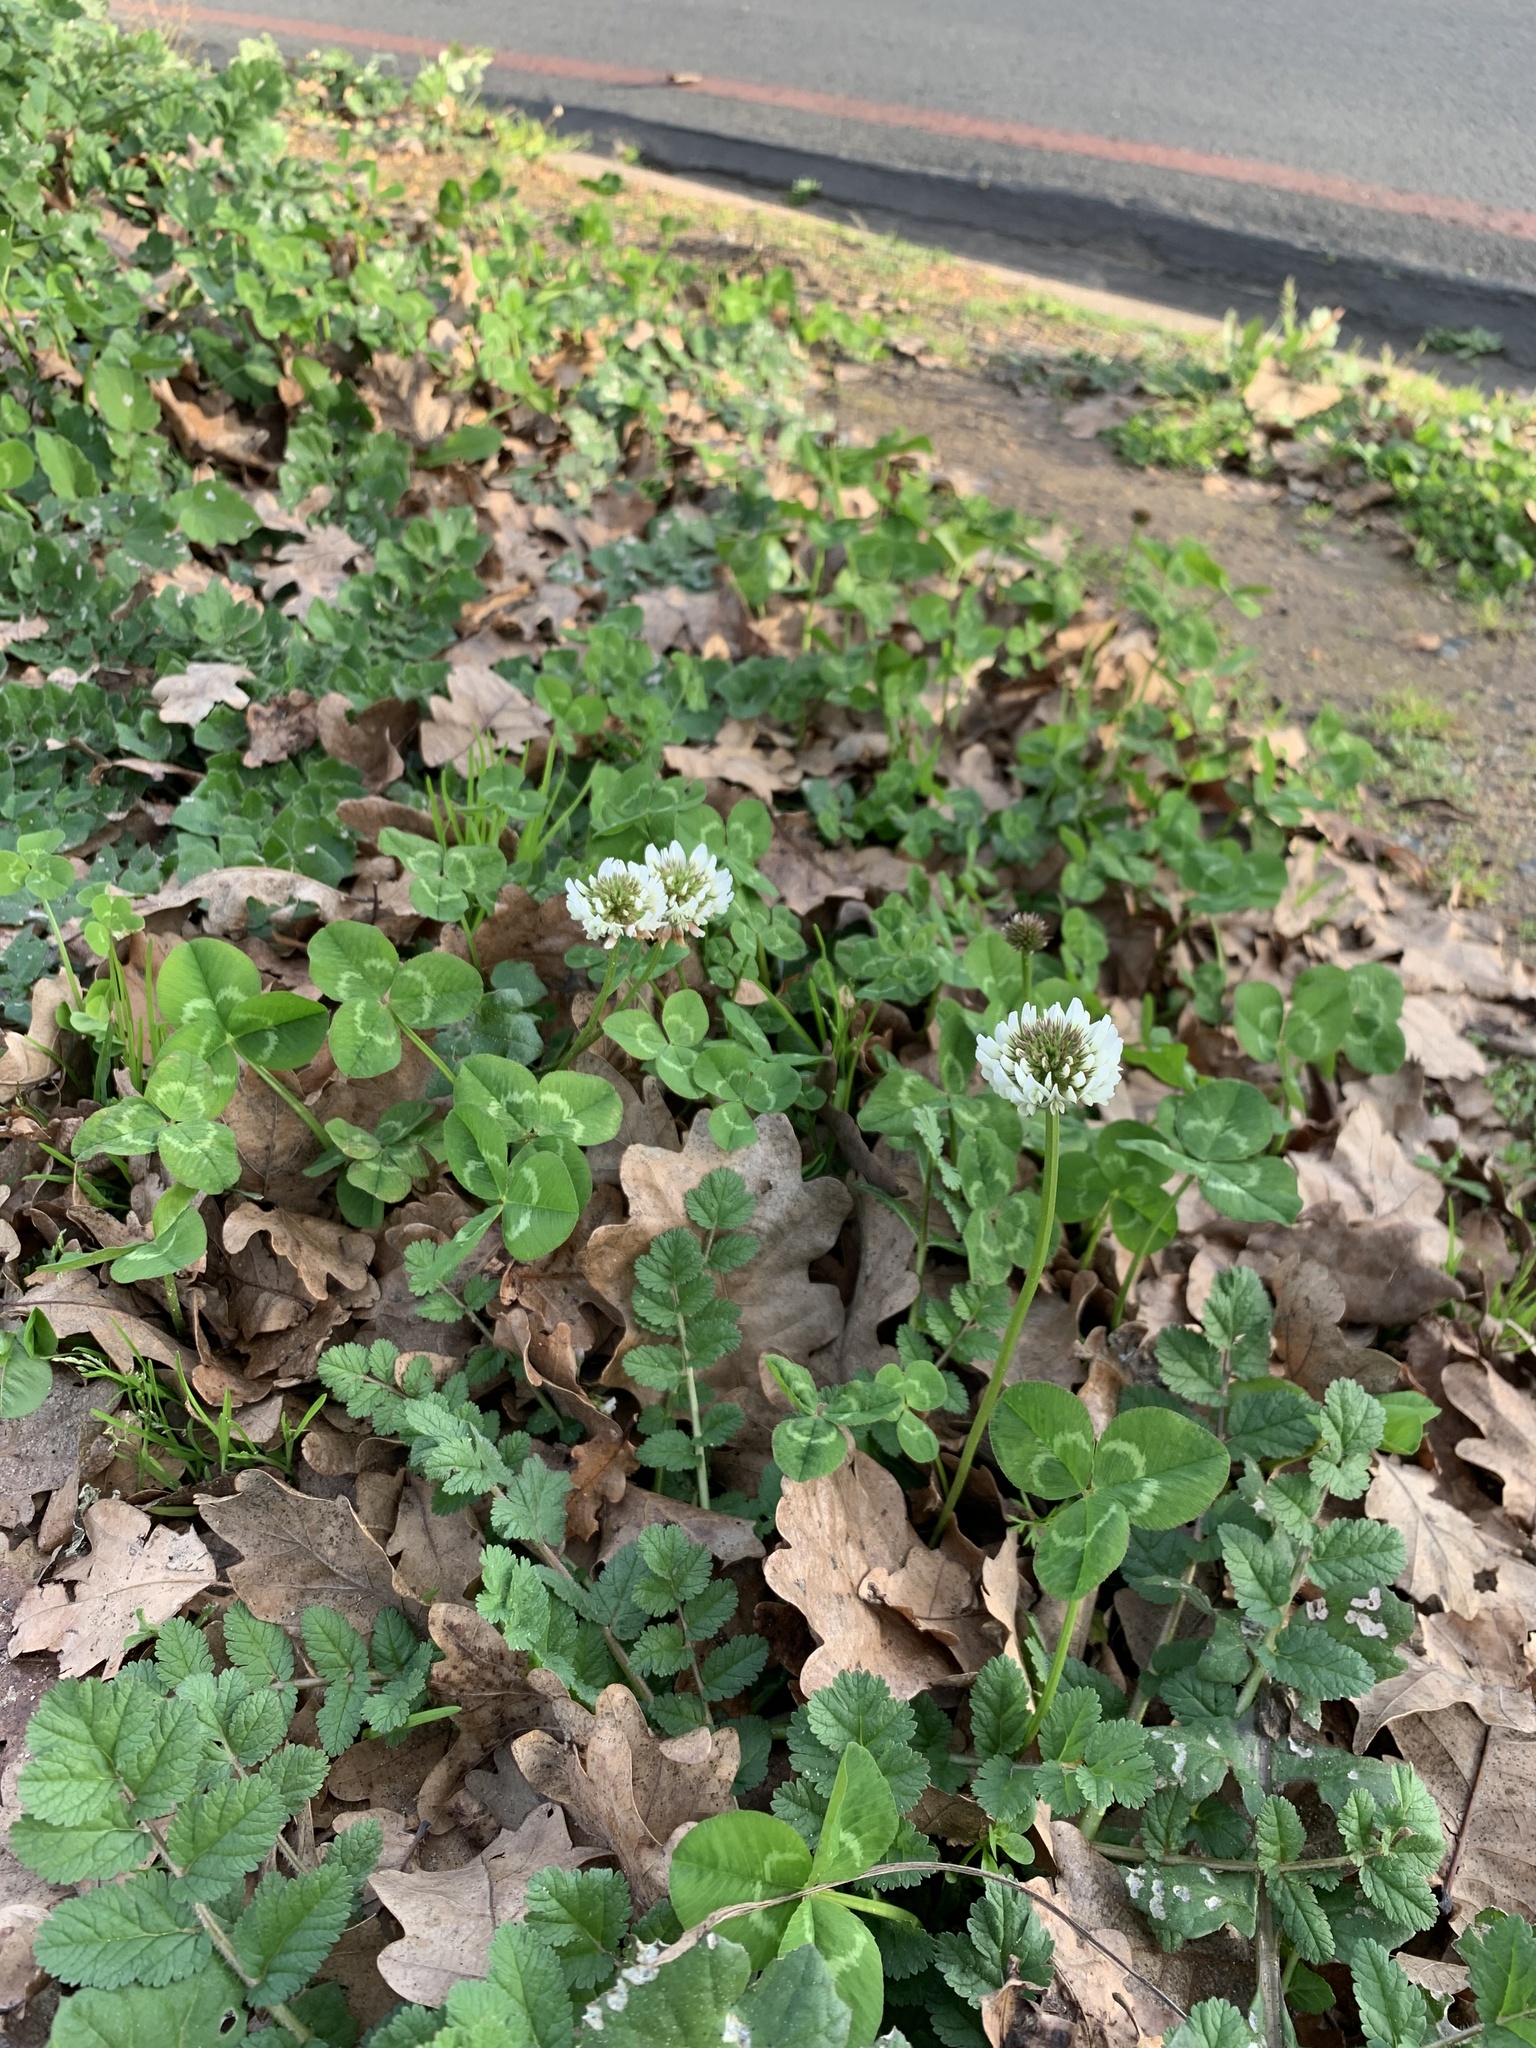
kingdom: Plantae
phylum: Tracheophyta
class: Magnoliopsida
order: Fabales
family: Fabaceae
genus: Trifolium
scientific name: Trifolium repens
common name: White clover
